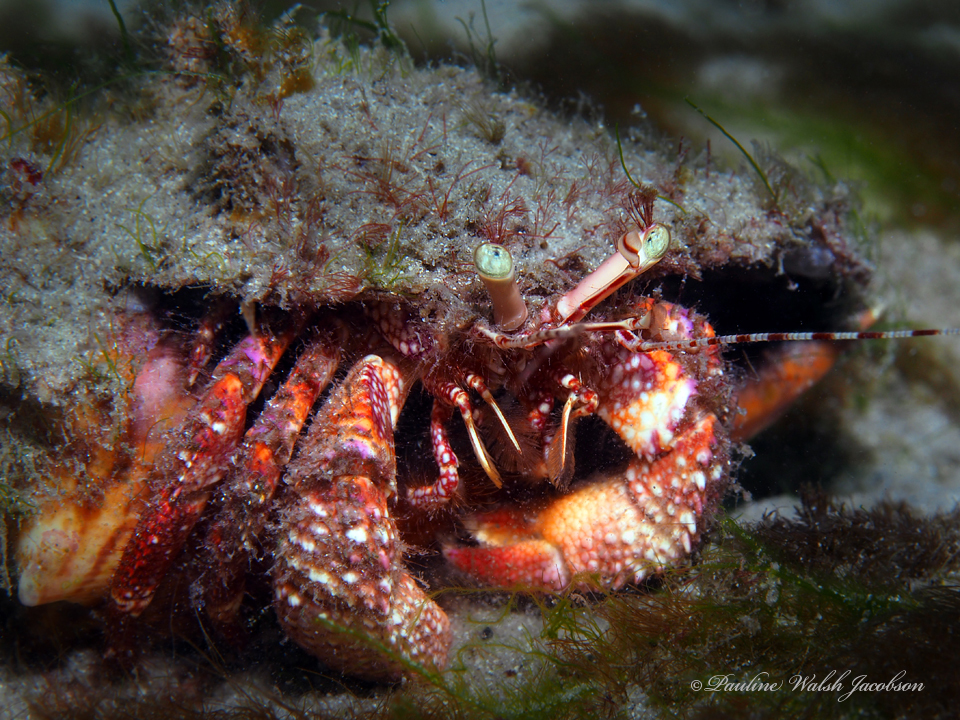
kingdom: Animalia
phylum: Arthropoda
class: Malacostraca
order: Decapoda
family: Diogenidae
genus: Petrochirus
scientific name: Petrochirus diogenes
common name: Giant hermit crab
